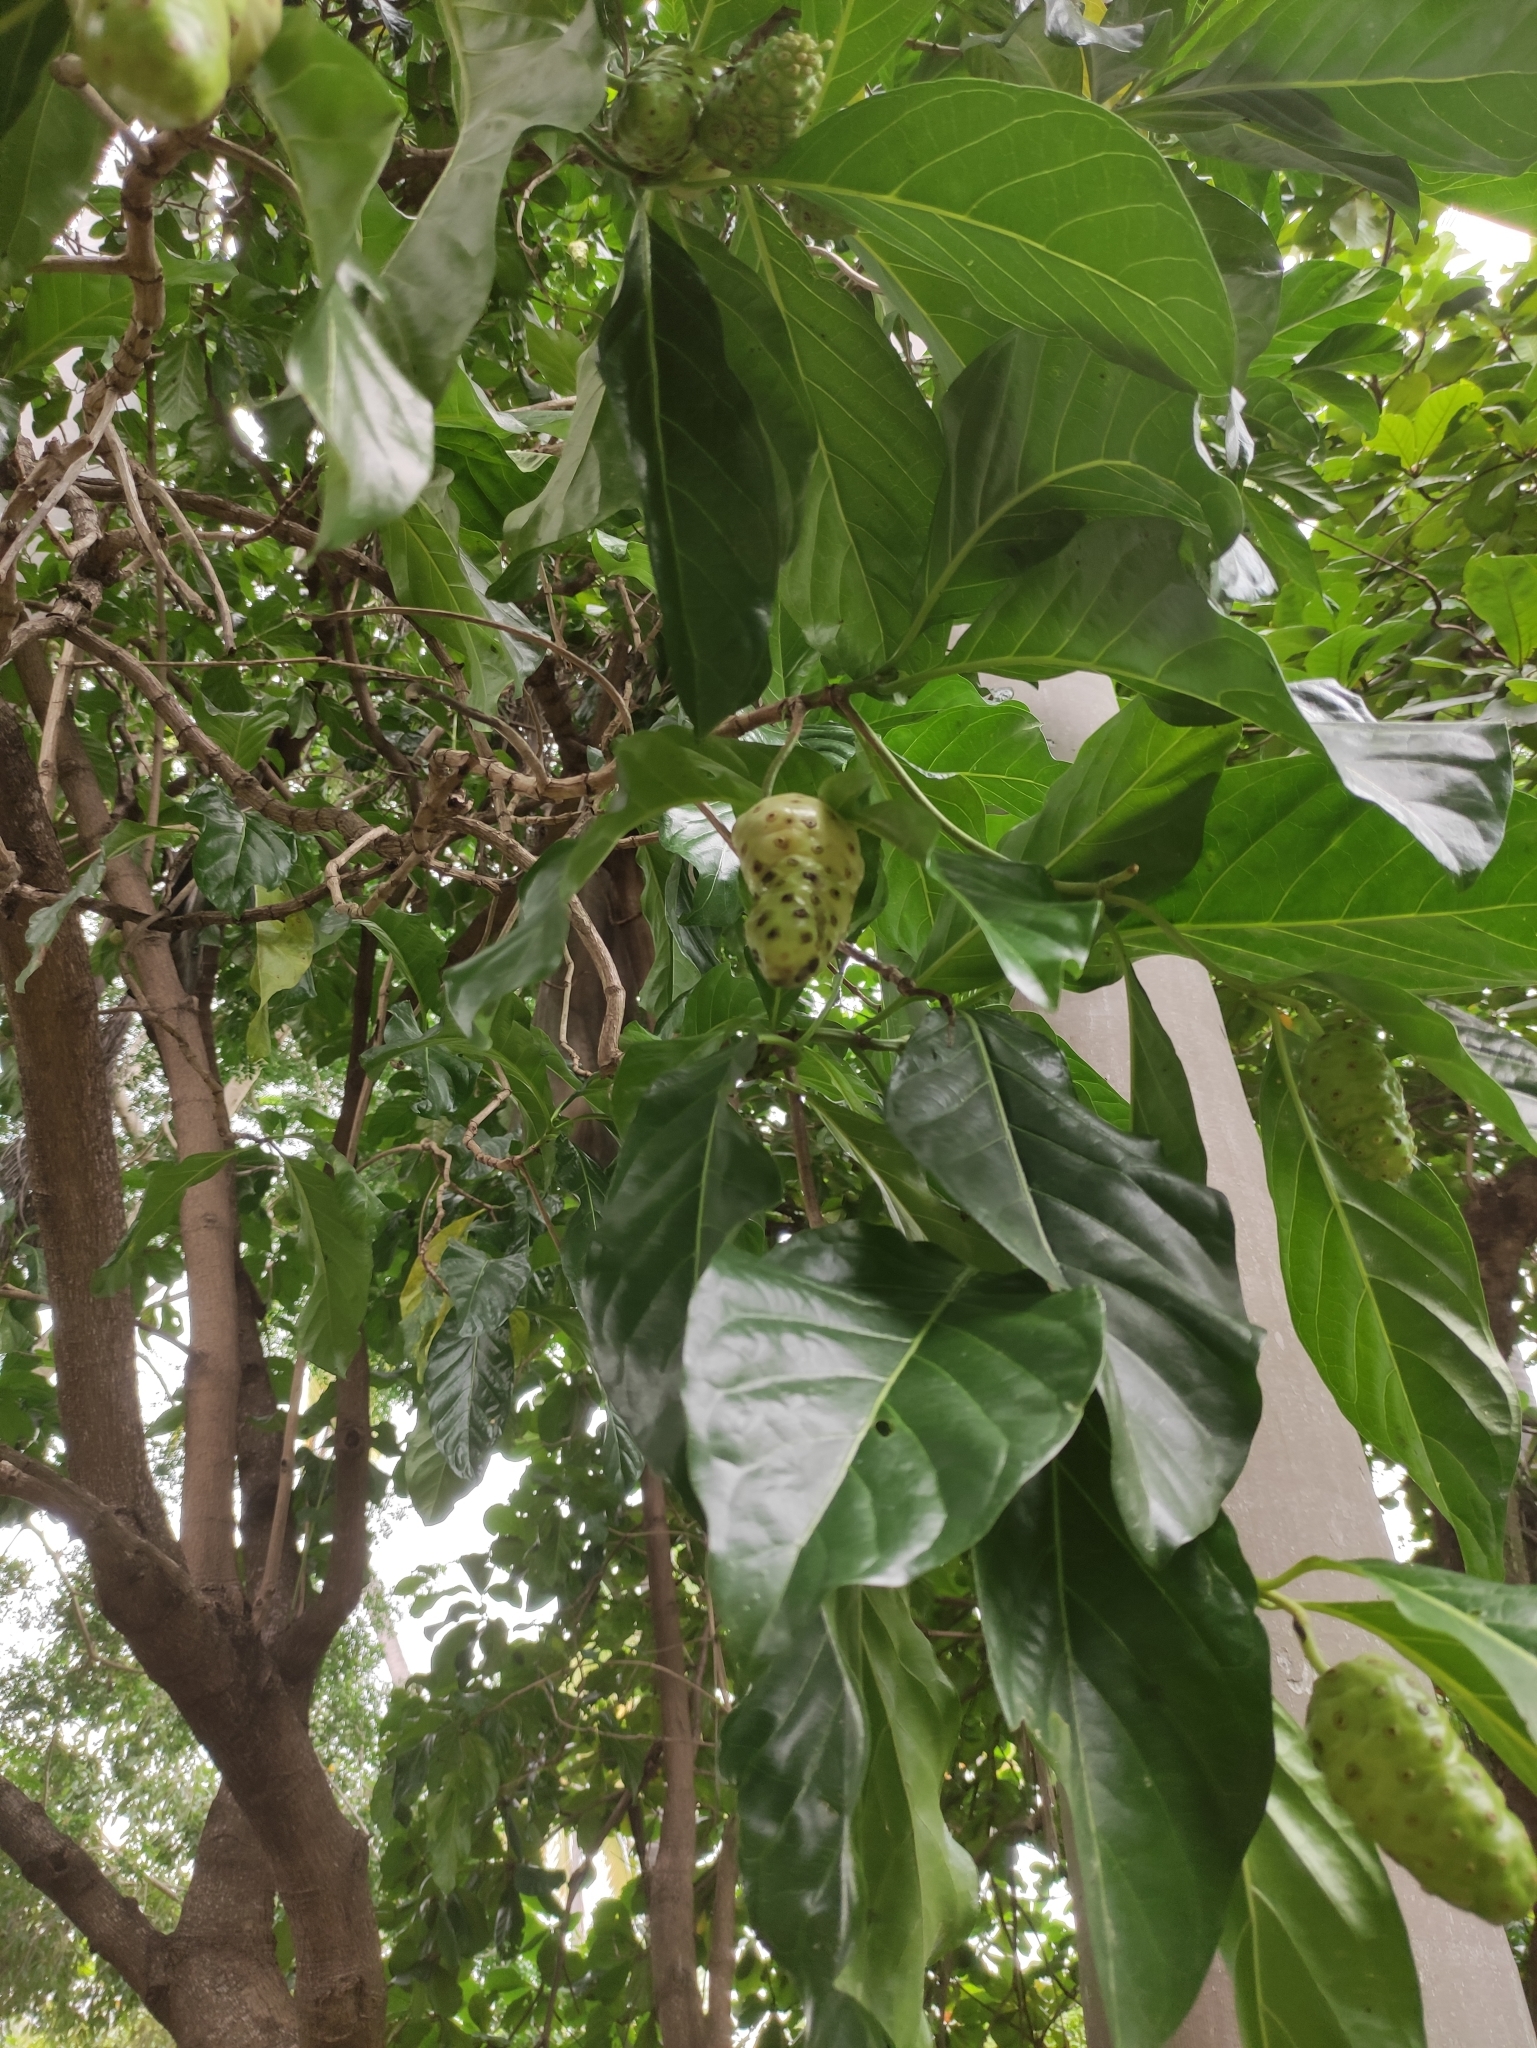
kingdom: Plantae
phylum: Tracheophyta
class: Magnoliopsida
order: Gentianales
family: Rubiaceae
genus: Morinda
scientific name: Morinda citrifolia
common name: Indian-mulberry
